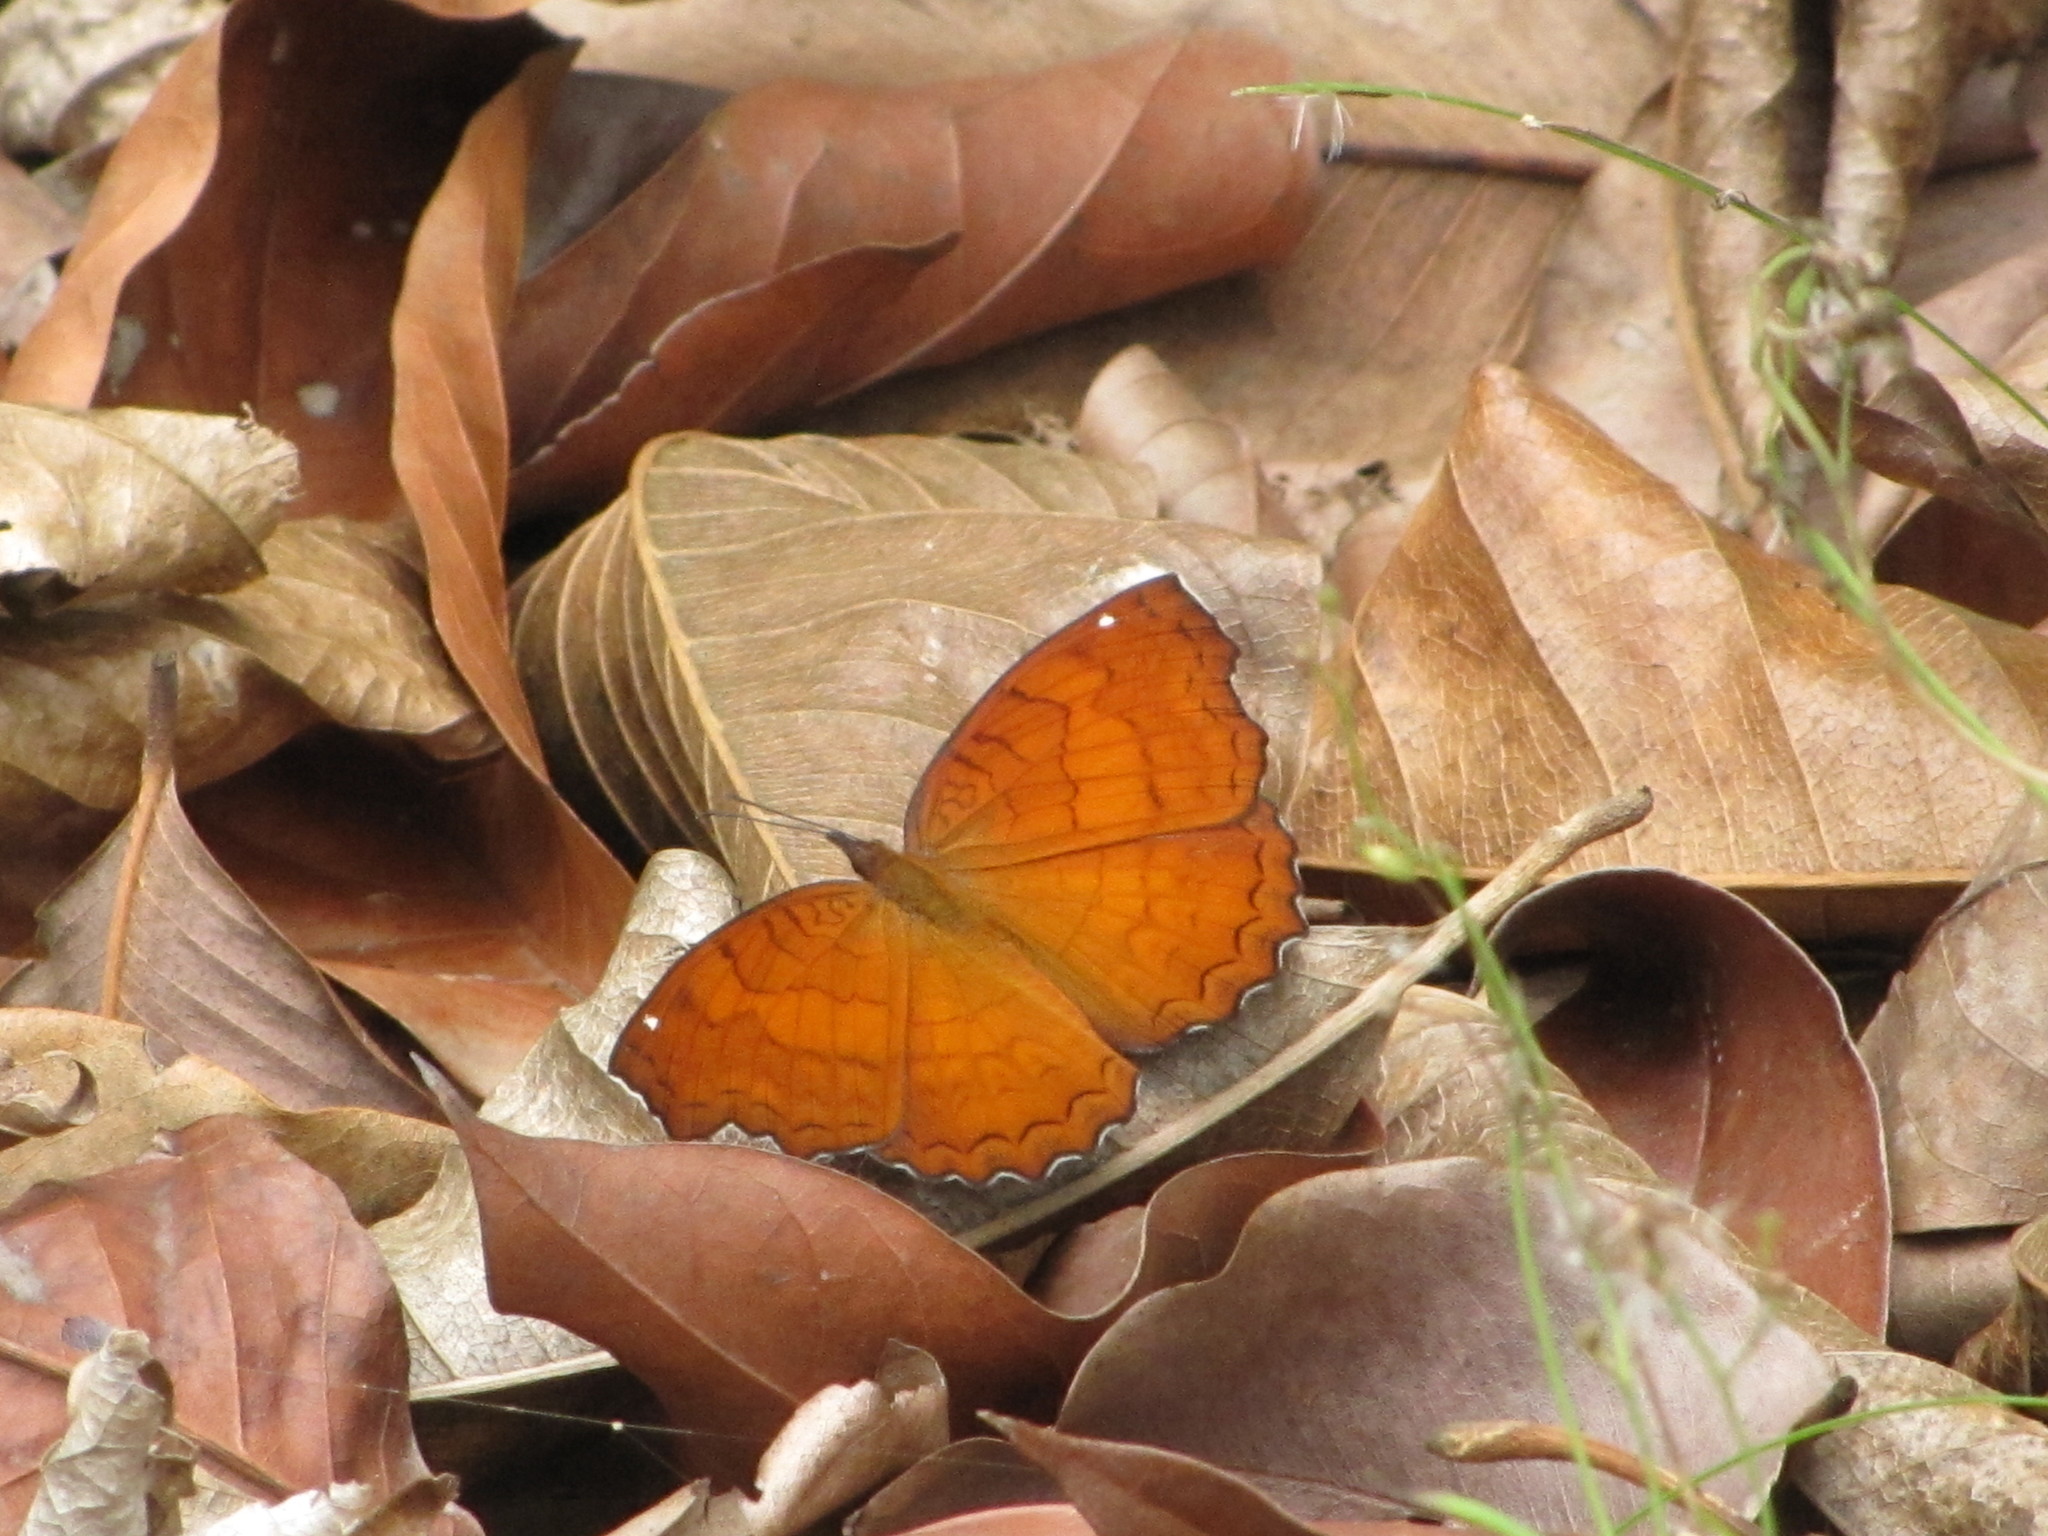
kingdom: Animalia
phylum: Arthropoda
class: Insecta
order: Lepidoptera
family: Nymphalidae
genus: Ariadne
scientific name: Ariadne ariadne
